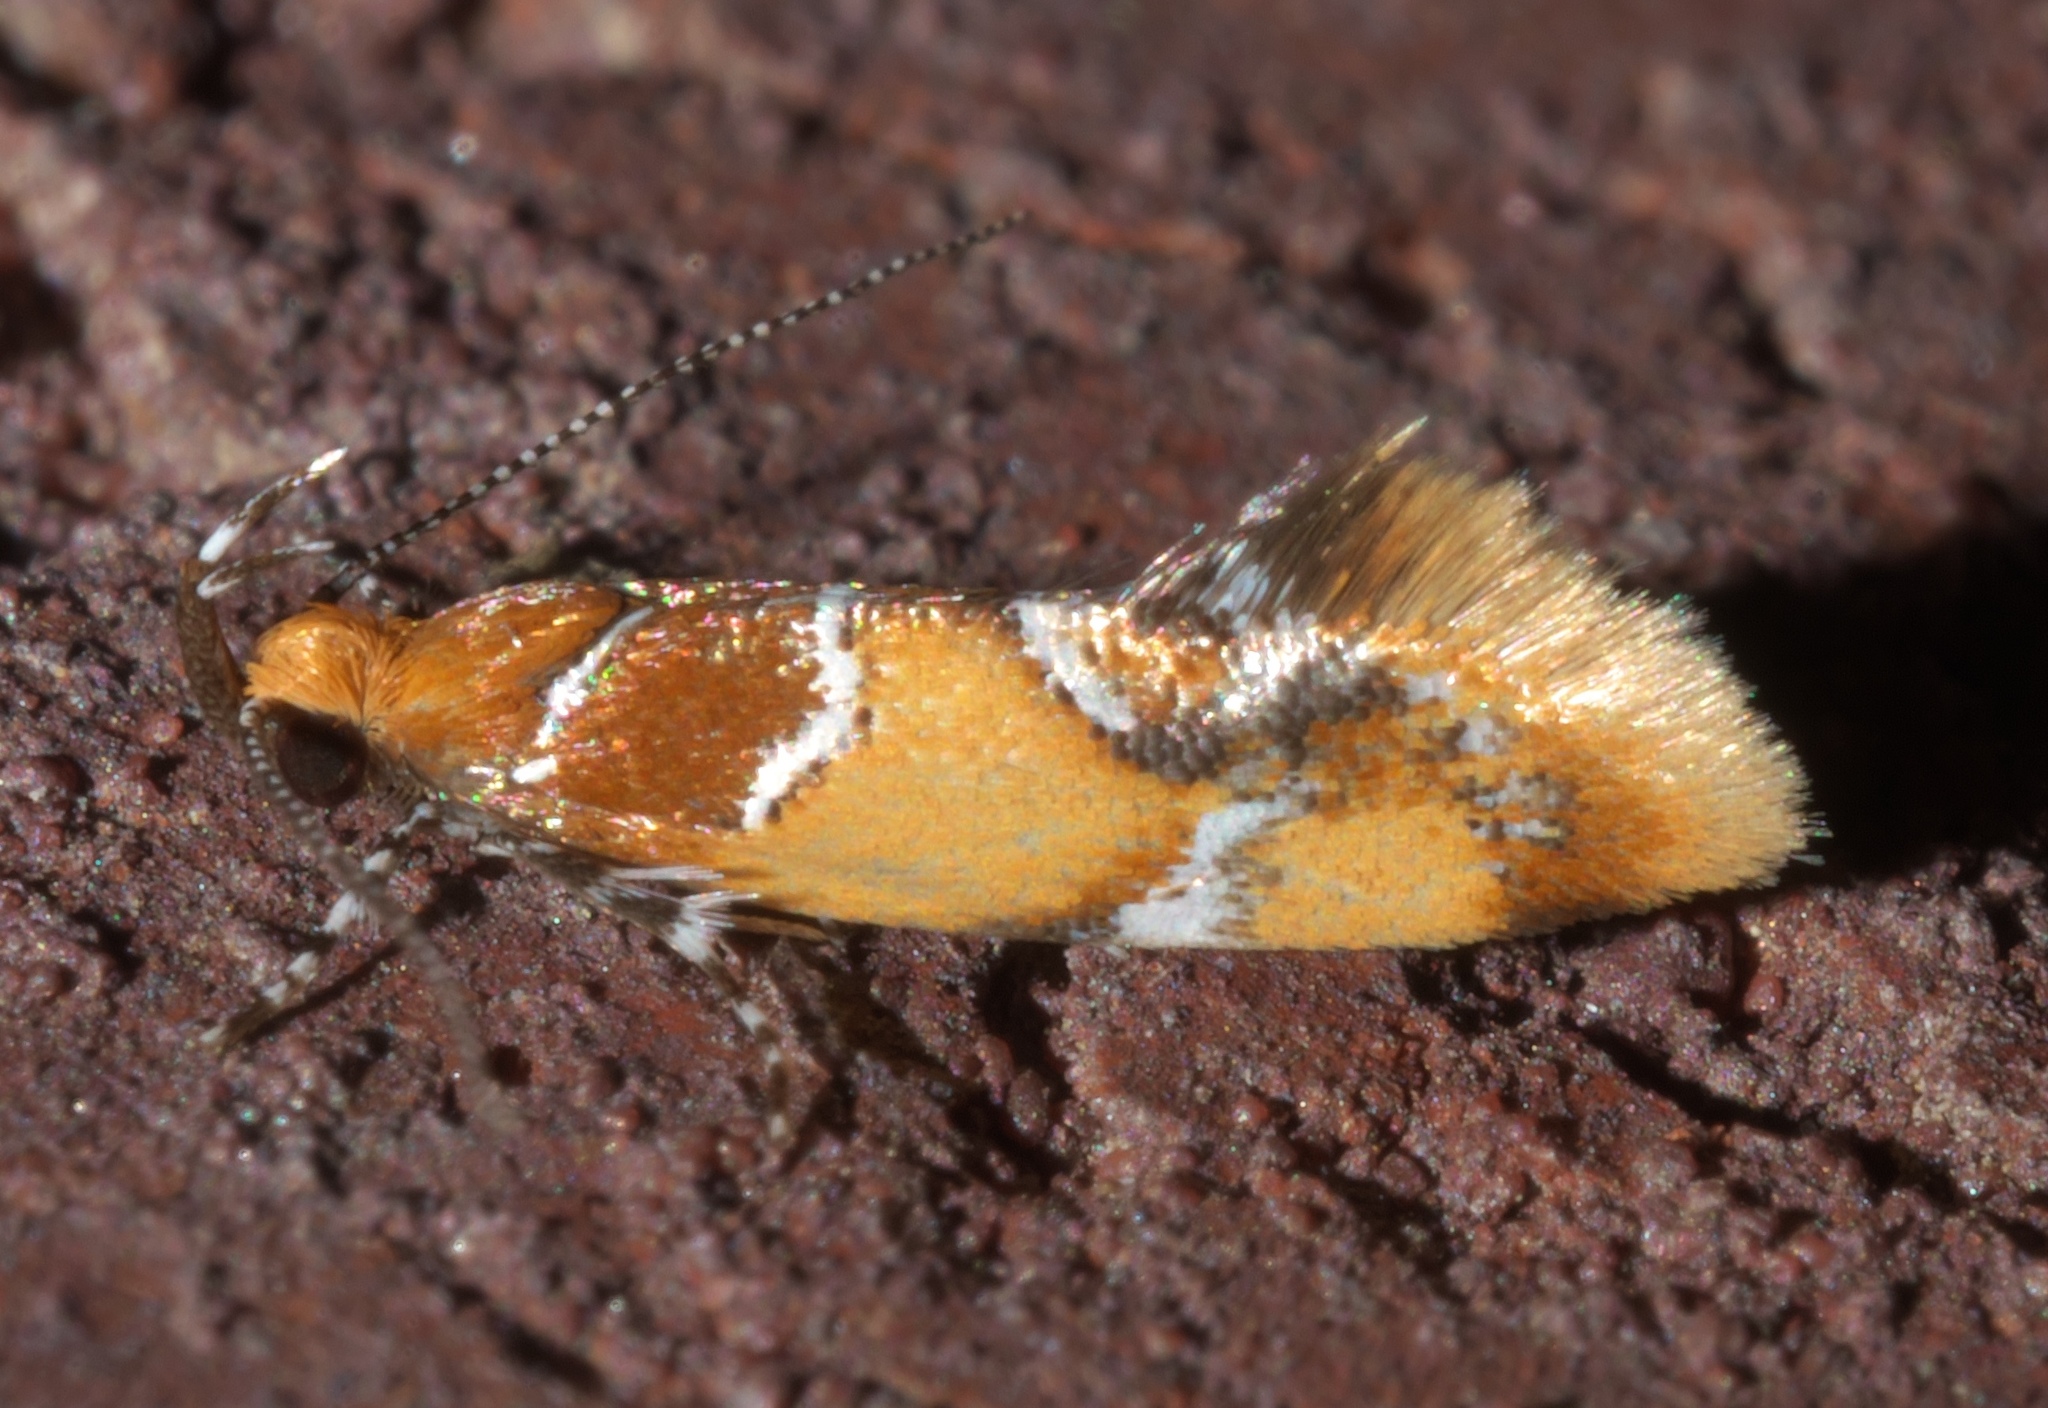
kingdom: Animalia
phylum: Arthropoda
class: Insecta
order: Lepidoptera
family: Oecophoridae
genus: Callima
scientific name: Callima argenticinctella
